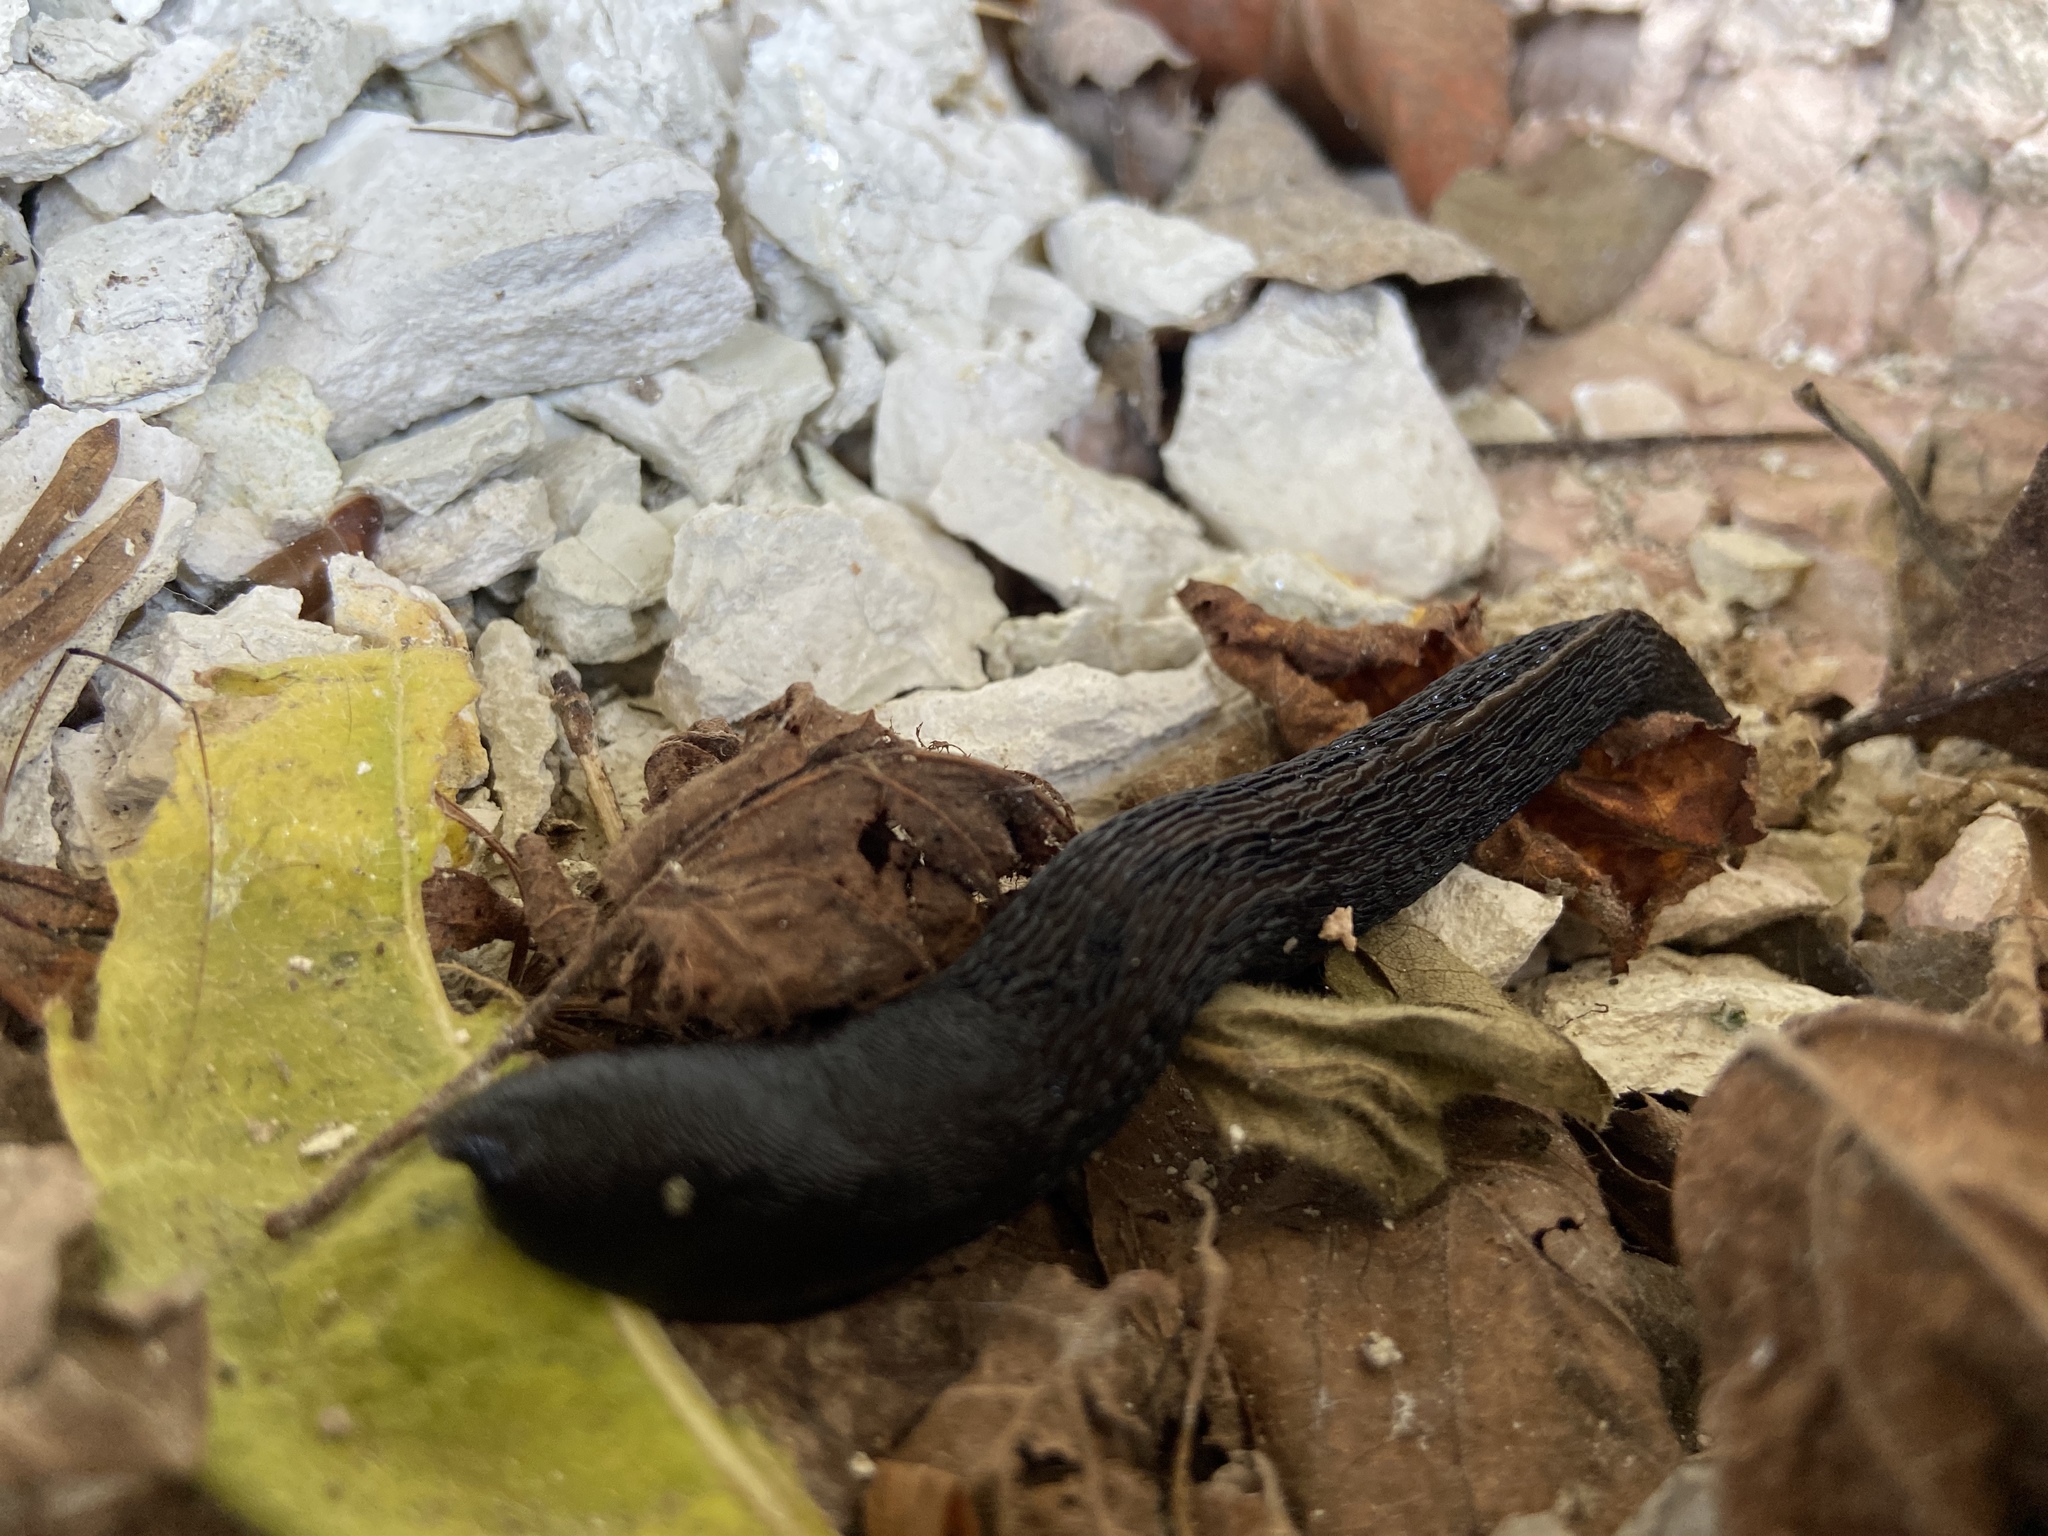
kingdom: Animalia
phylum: Mollusca
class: Gastropoda
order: Stylommatophora
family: Limacidae
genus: Limax
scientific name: Limax cinereoniger
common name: Ash-black slug
